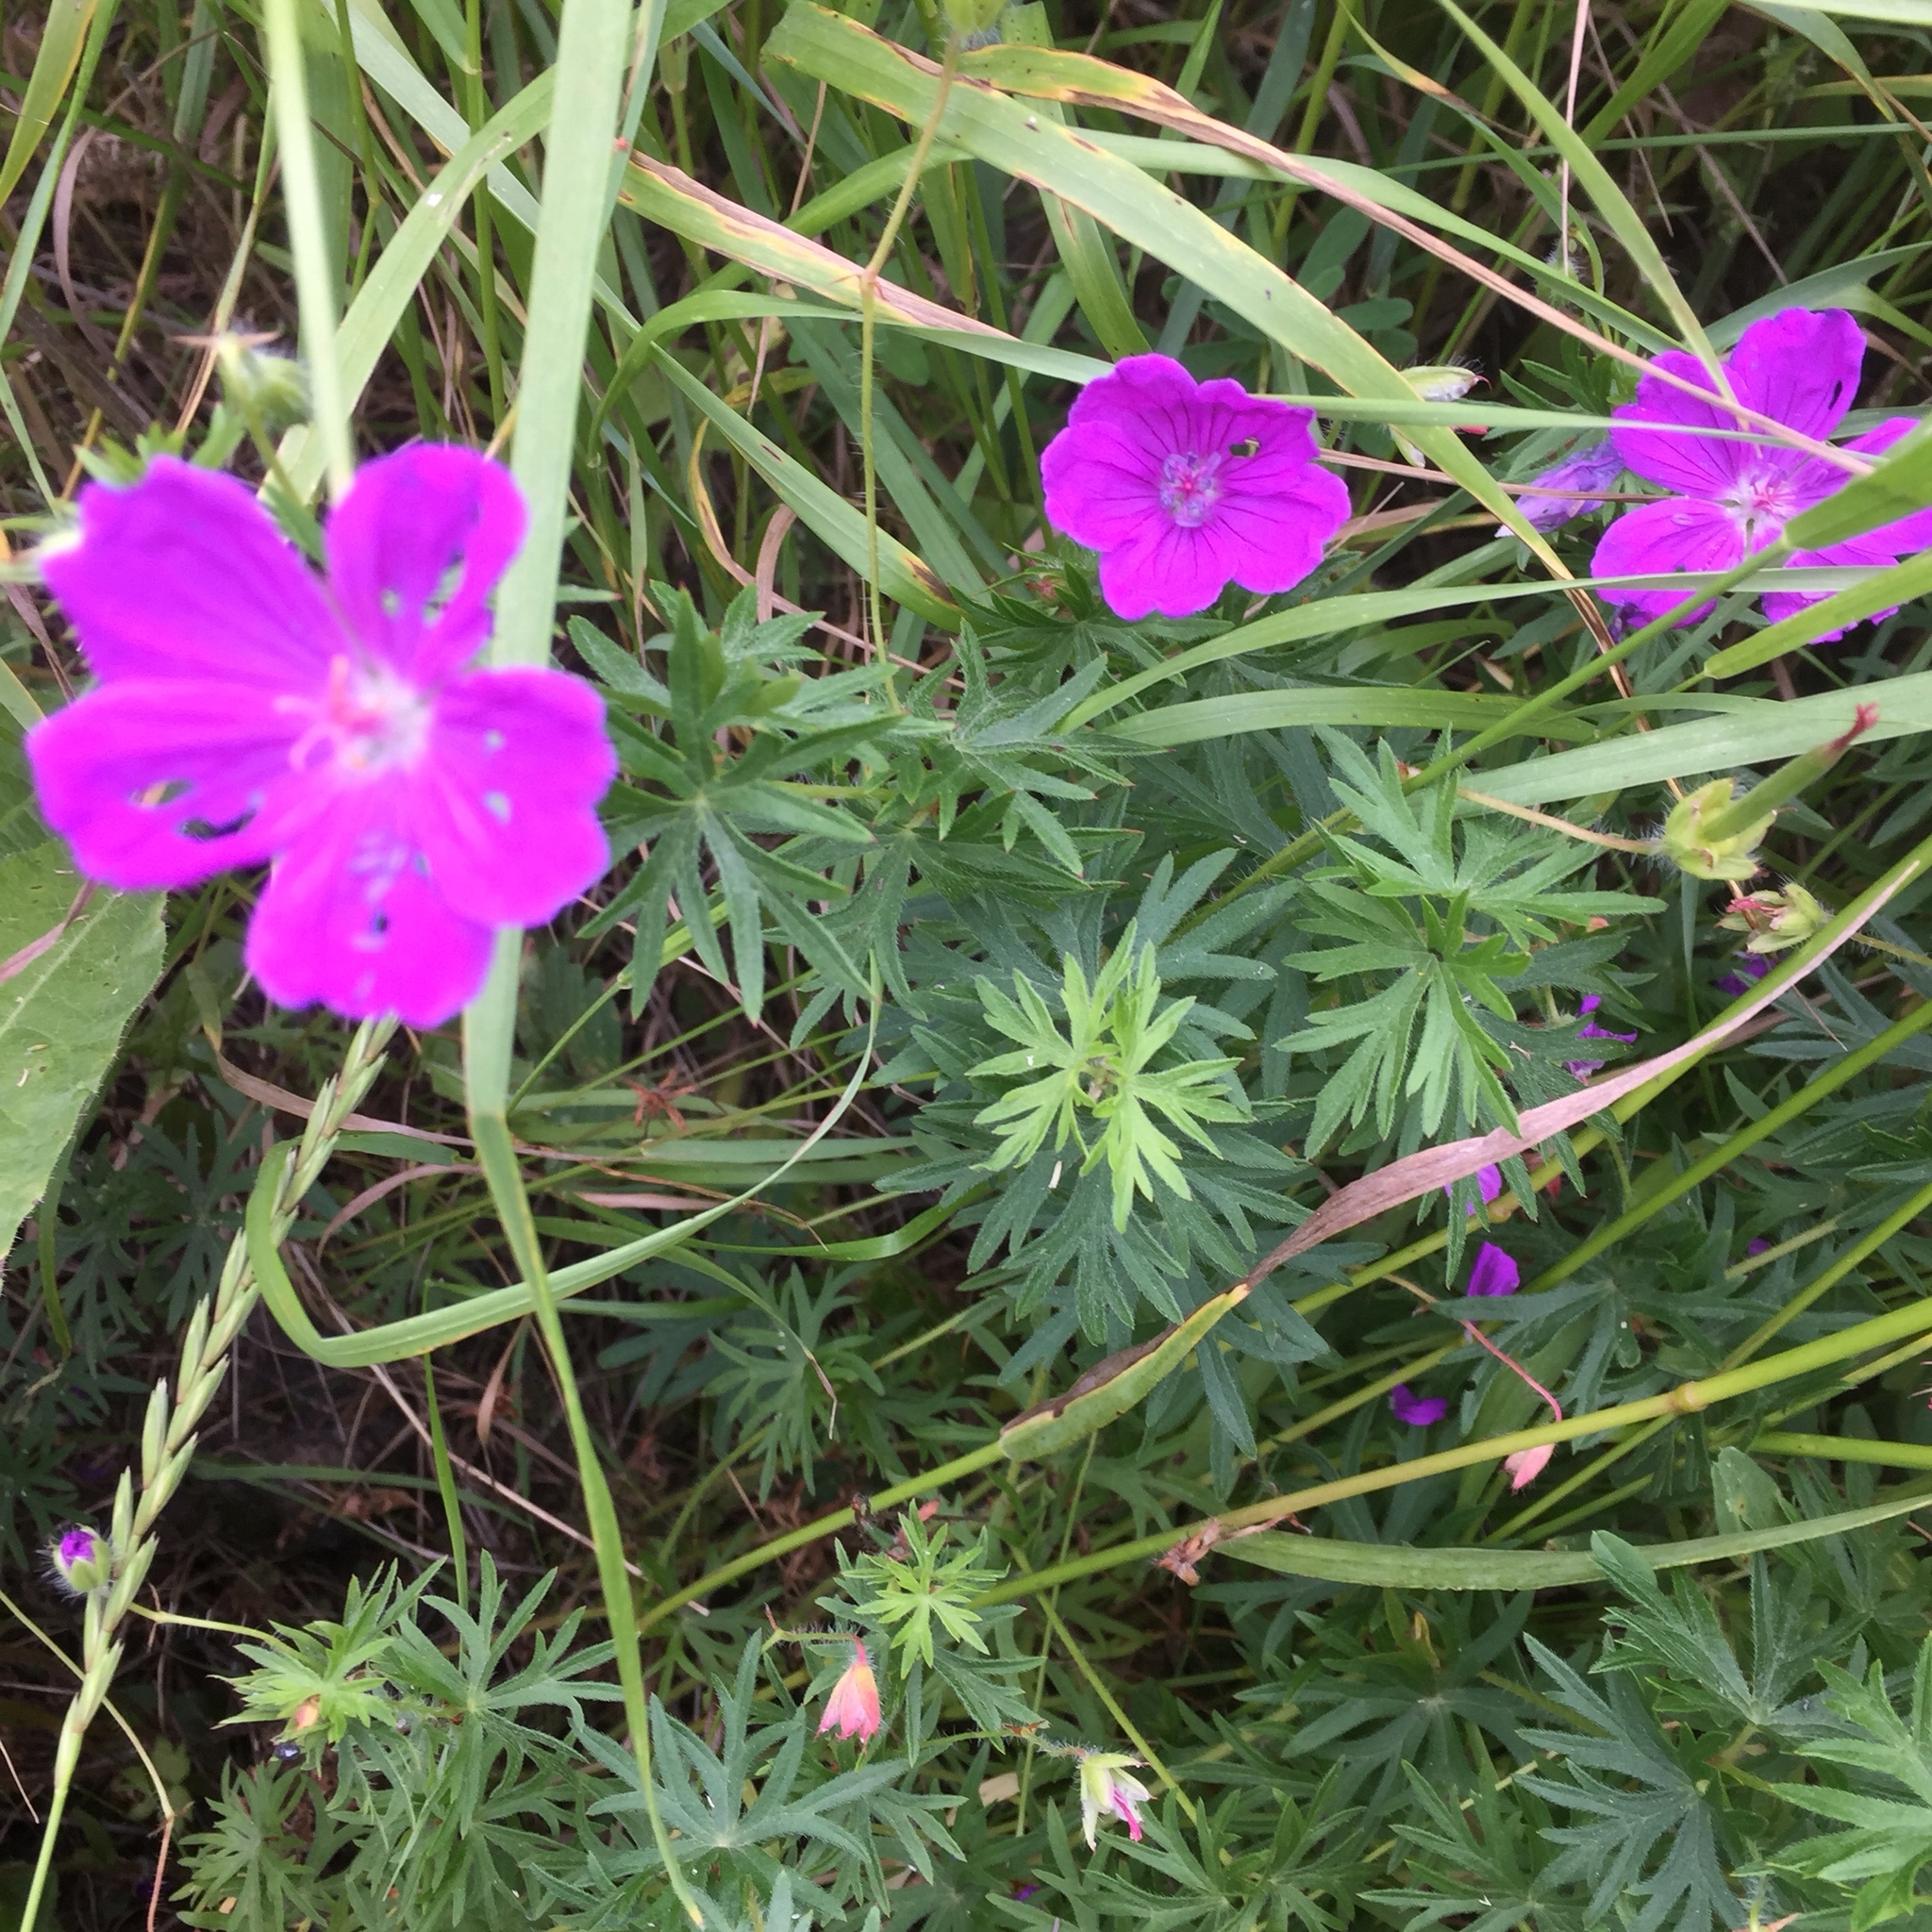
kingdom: Plantae
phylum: Tracheophyta
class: Magnoliopsida
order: Geraniales
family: Geraniaceae
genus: Geranium
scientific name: Geranium sanguineum
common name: Bloody crane's-bill
